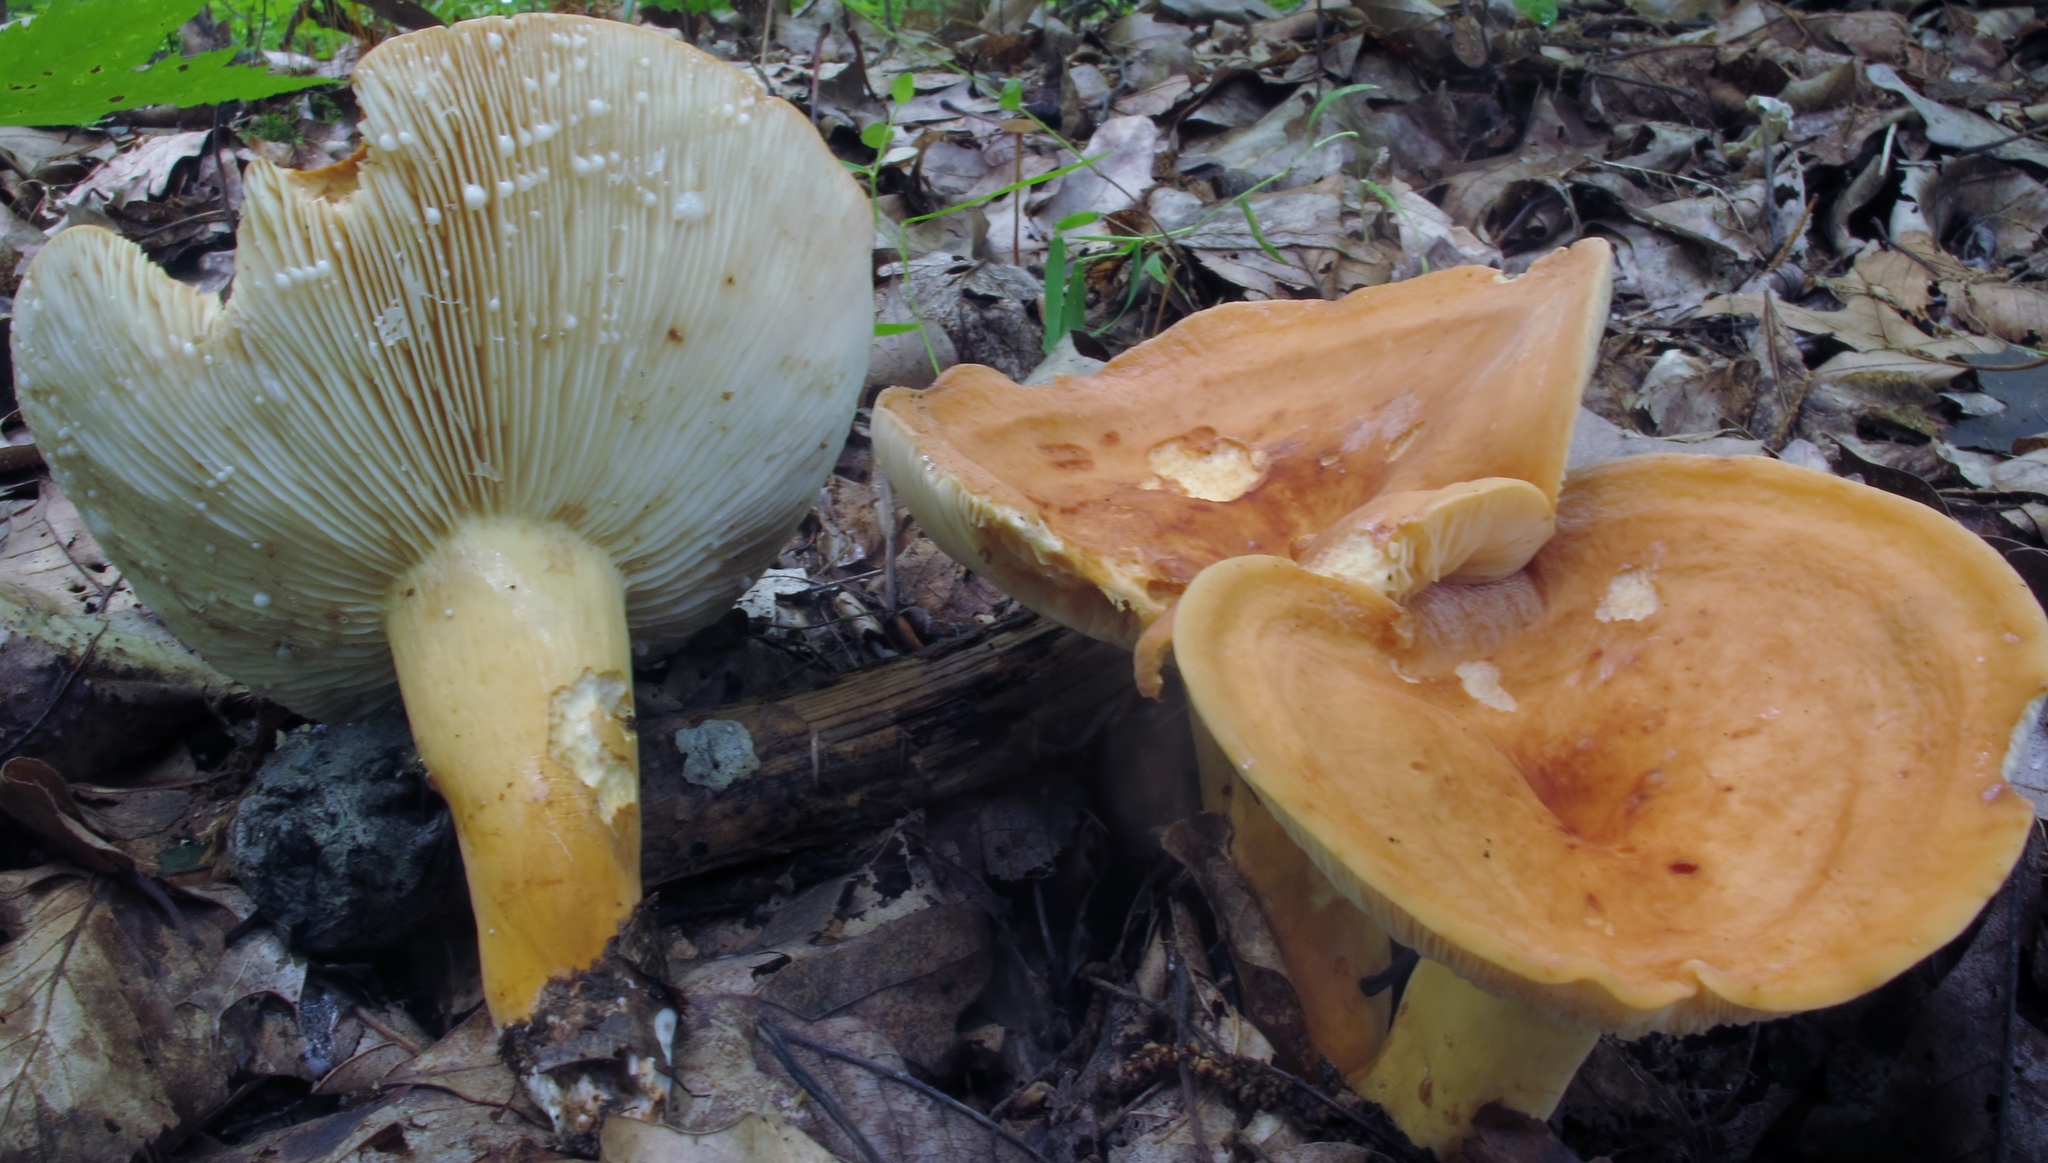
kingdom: Fungi
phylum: Basidiomycota
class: Agaricomycetes
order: Russulales
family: Russulaceae
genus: Lactifluus
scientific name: Lactifluus volemus
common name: Fishy milkcap
